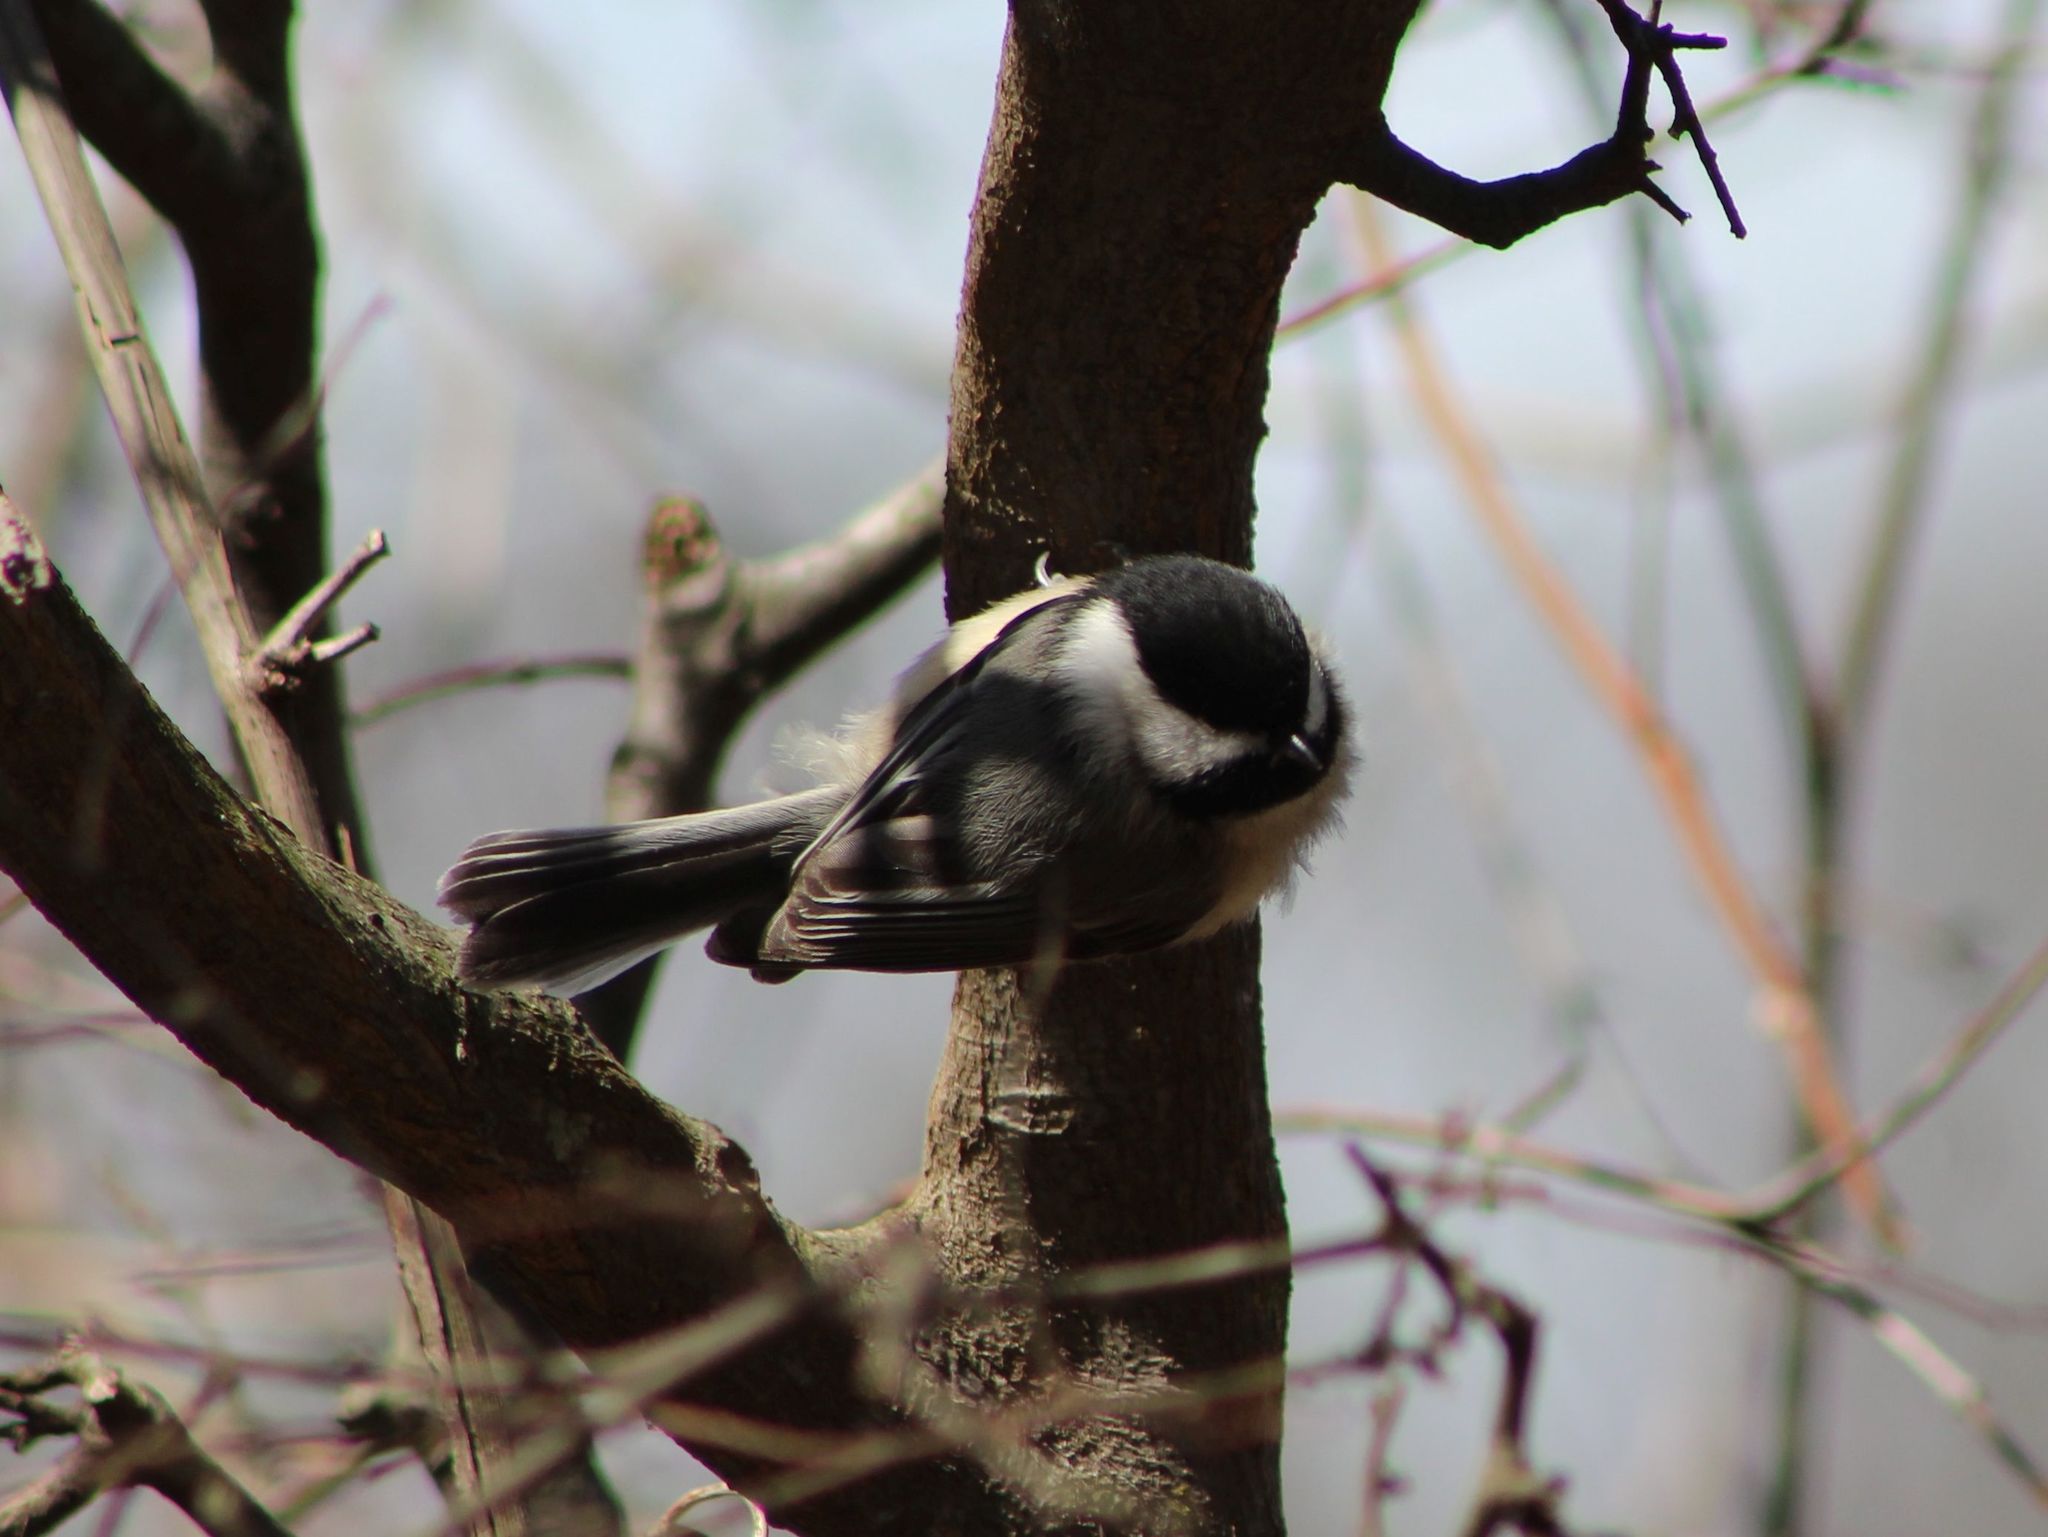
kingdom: Animalia
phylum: Chordata
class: Aves
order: Passeriformes
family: Paridae
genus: Poecile
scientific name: Poecile atricapillus
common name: Black-capped chickadee
